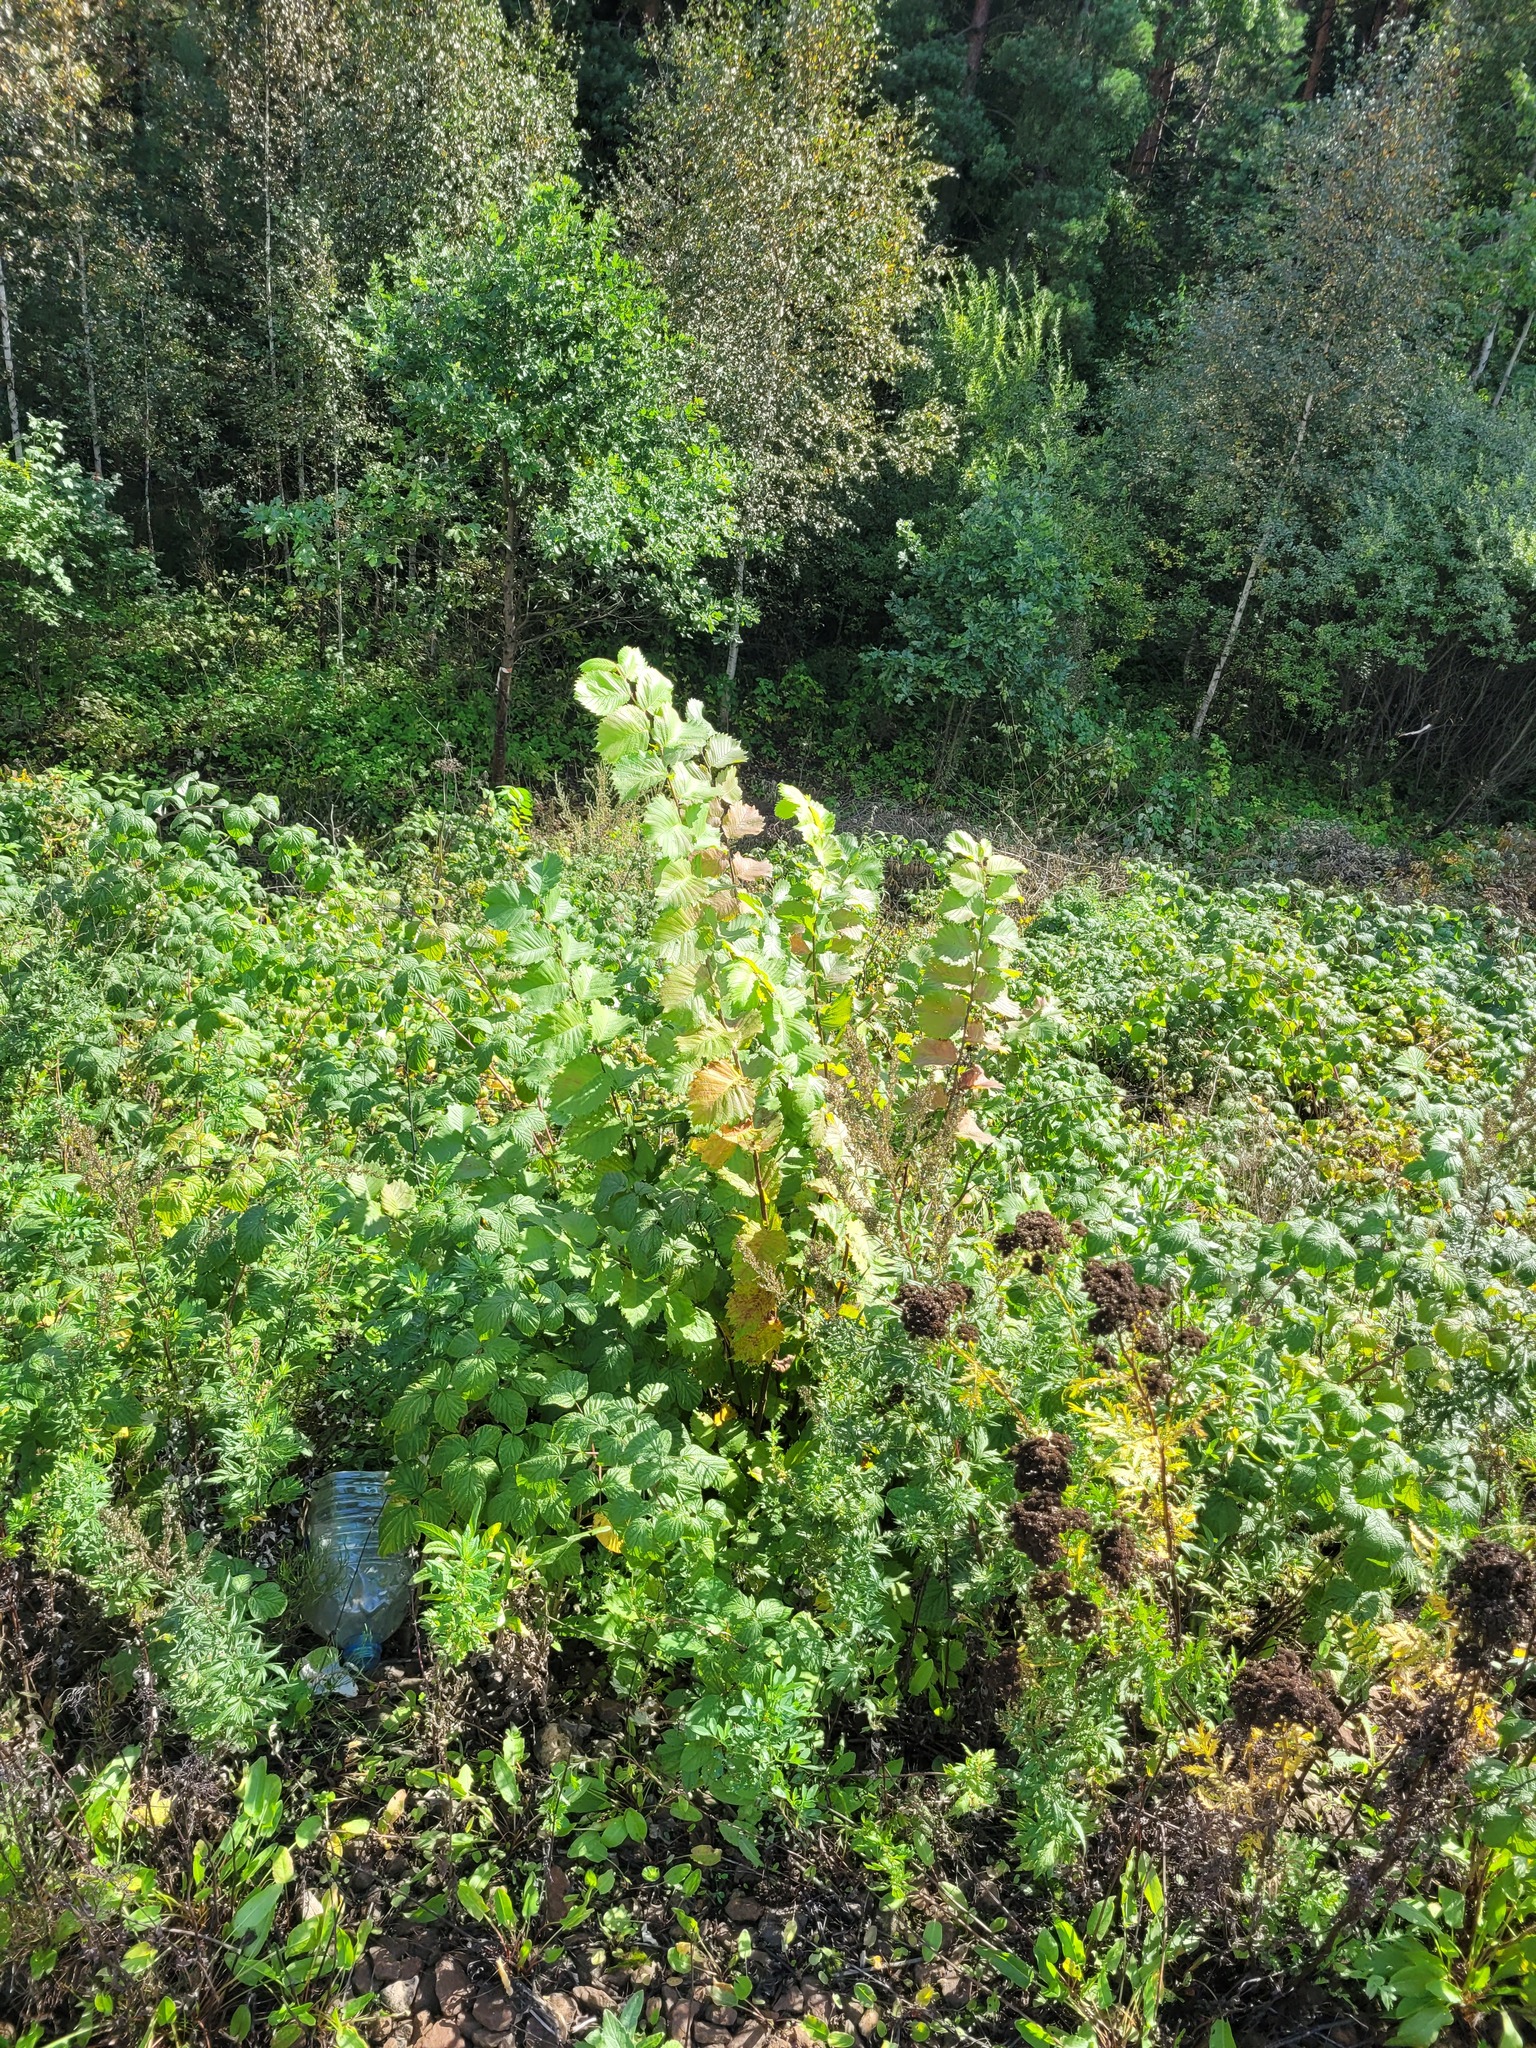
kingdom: Plantae
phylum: Tracheophyta
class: Magnoliopsida
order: Rosales
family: Ulmaceae
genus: Ulmus
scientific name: Ulmus laevis
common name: European white-elm
